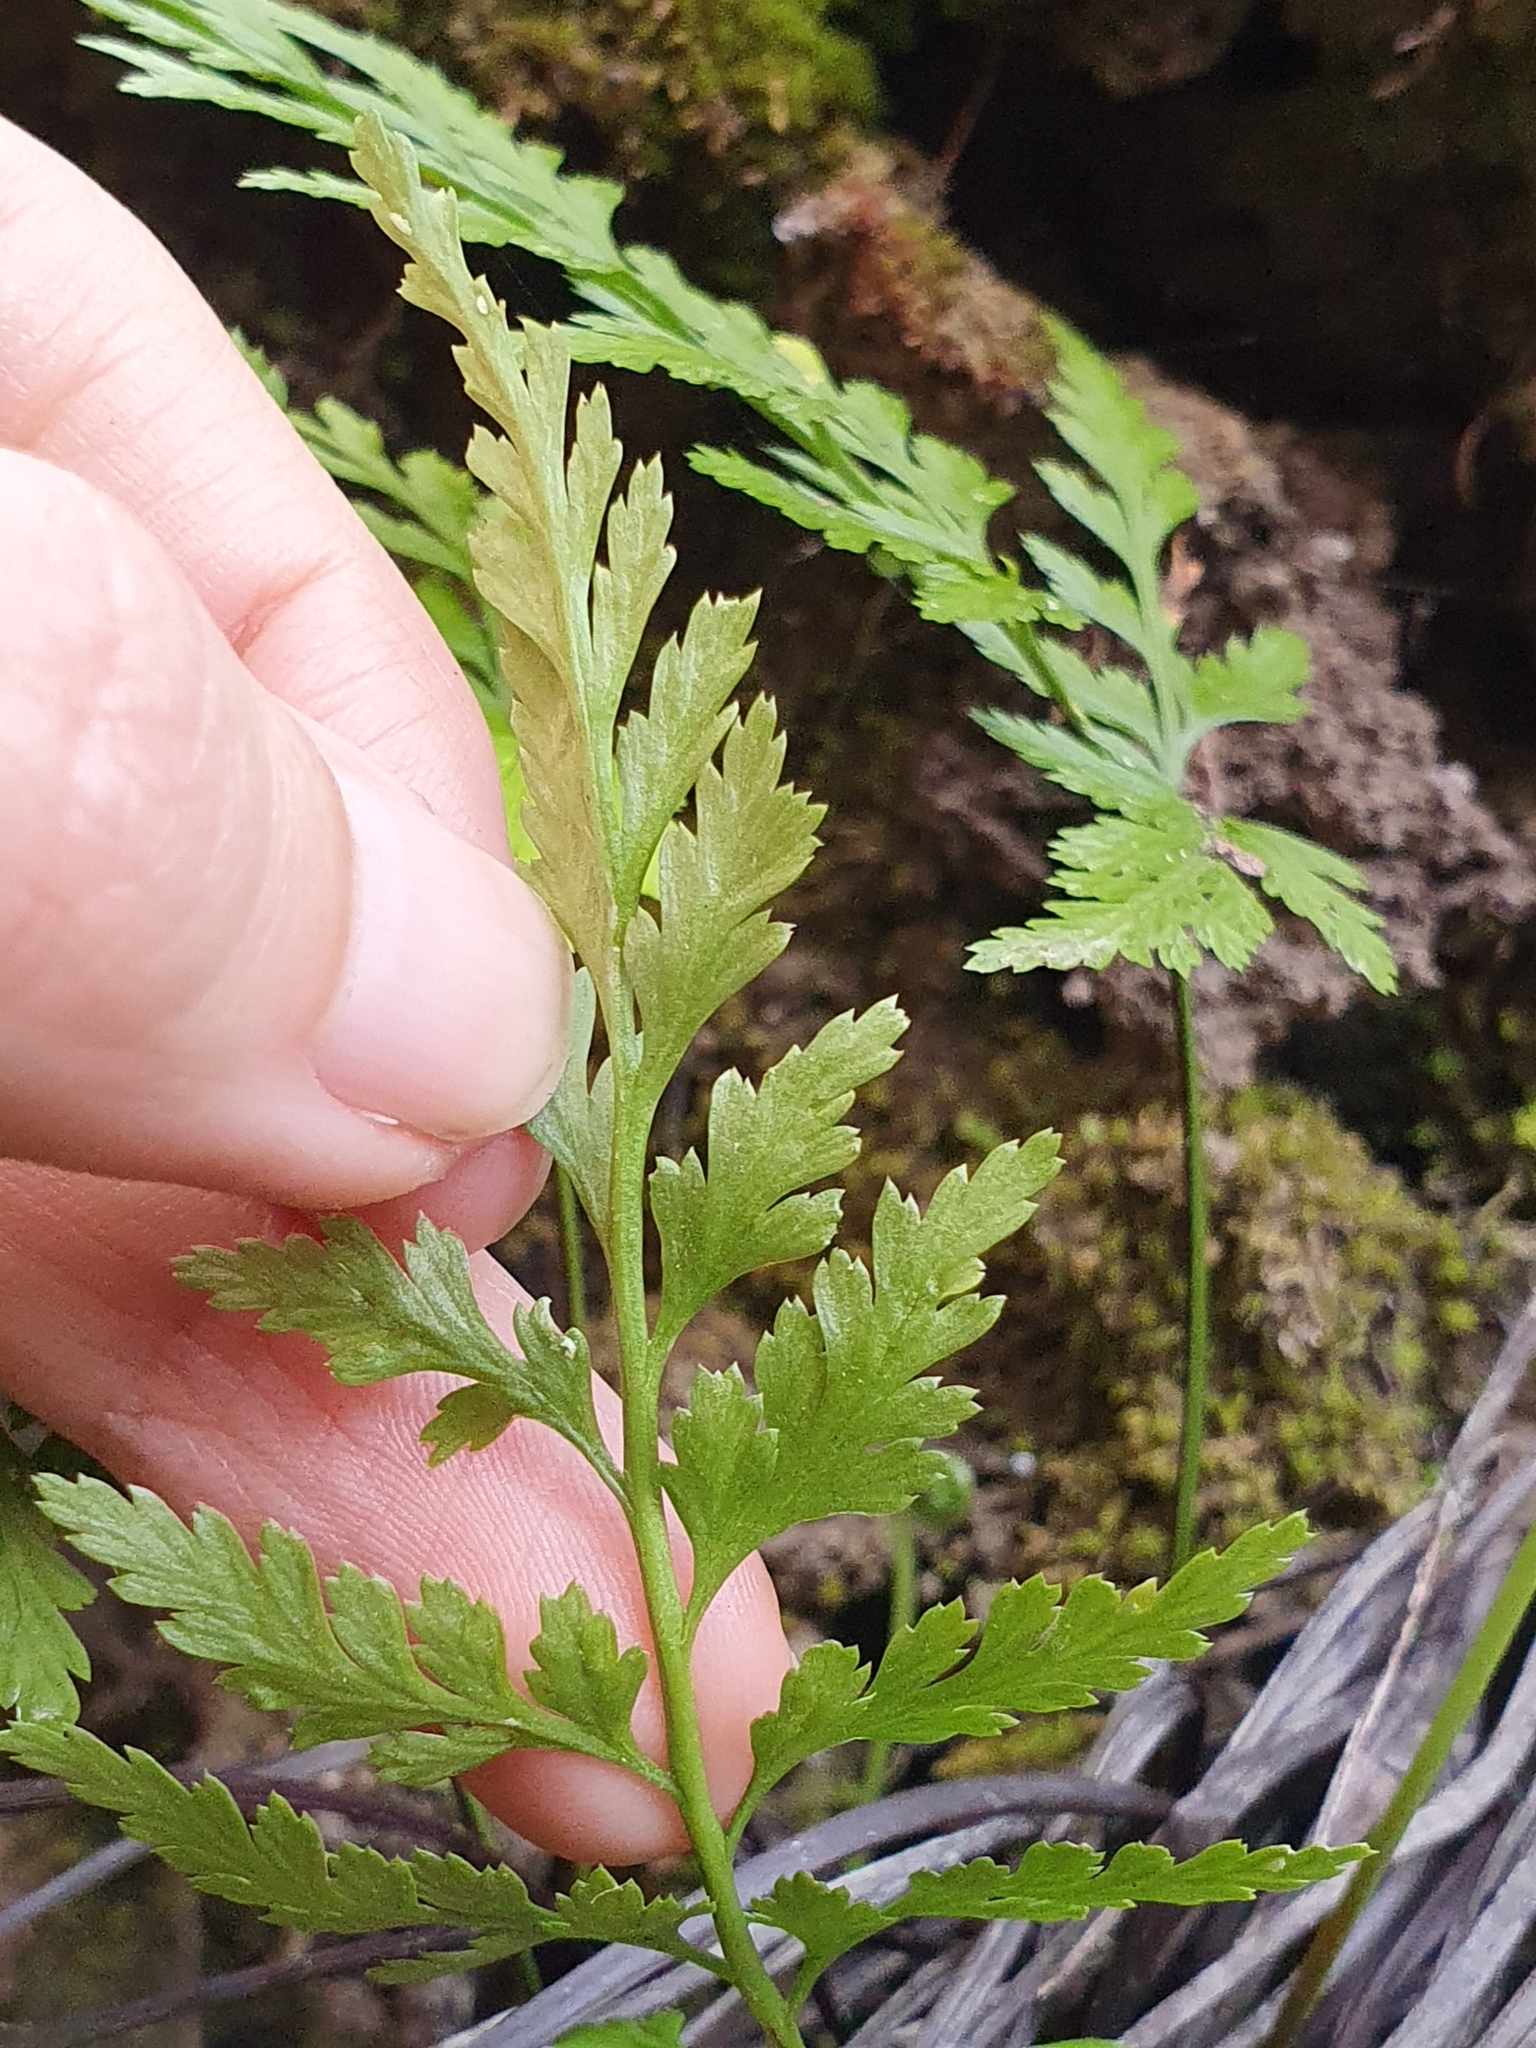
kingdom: Plantae
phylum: Tracheophyta
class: Polypodiopsida
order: Polypodiales
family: Aspleniaceae
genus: Asplenium
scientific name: Asplenium onopteris
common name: Irish spleenwort
